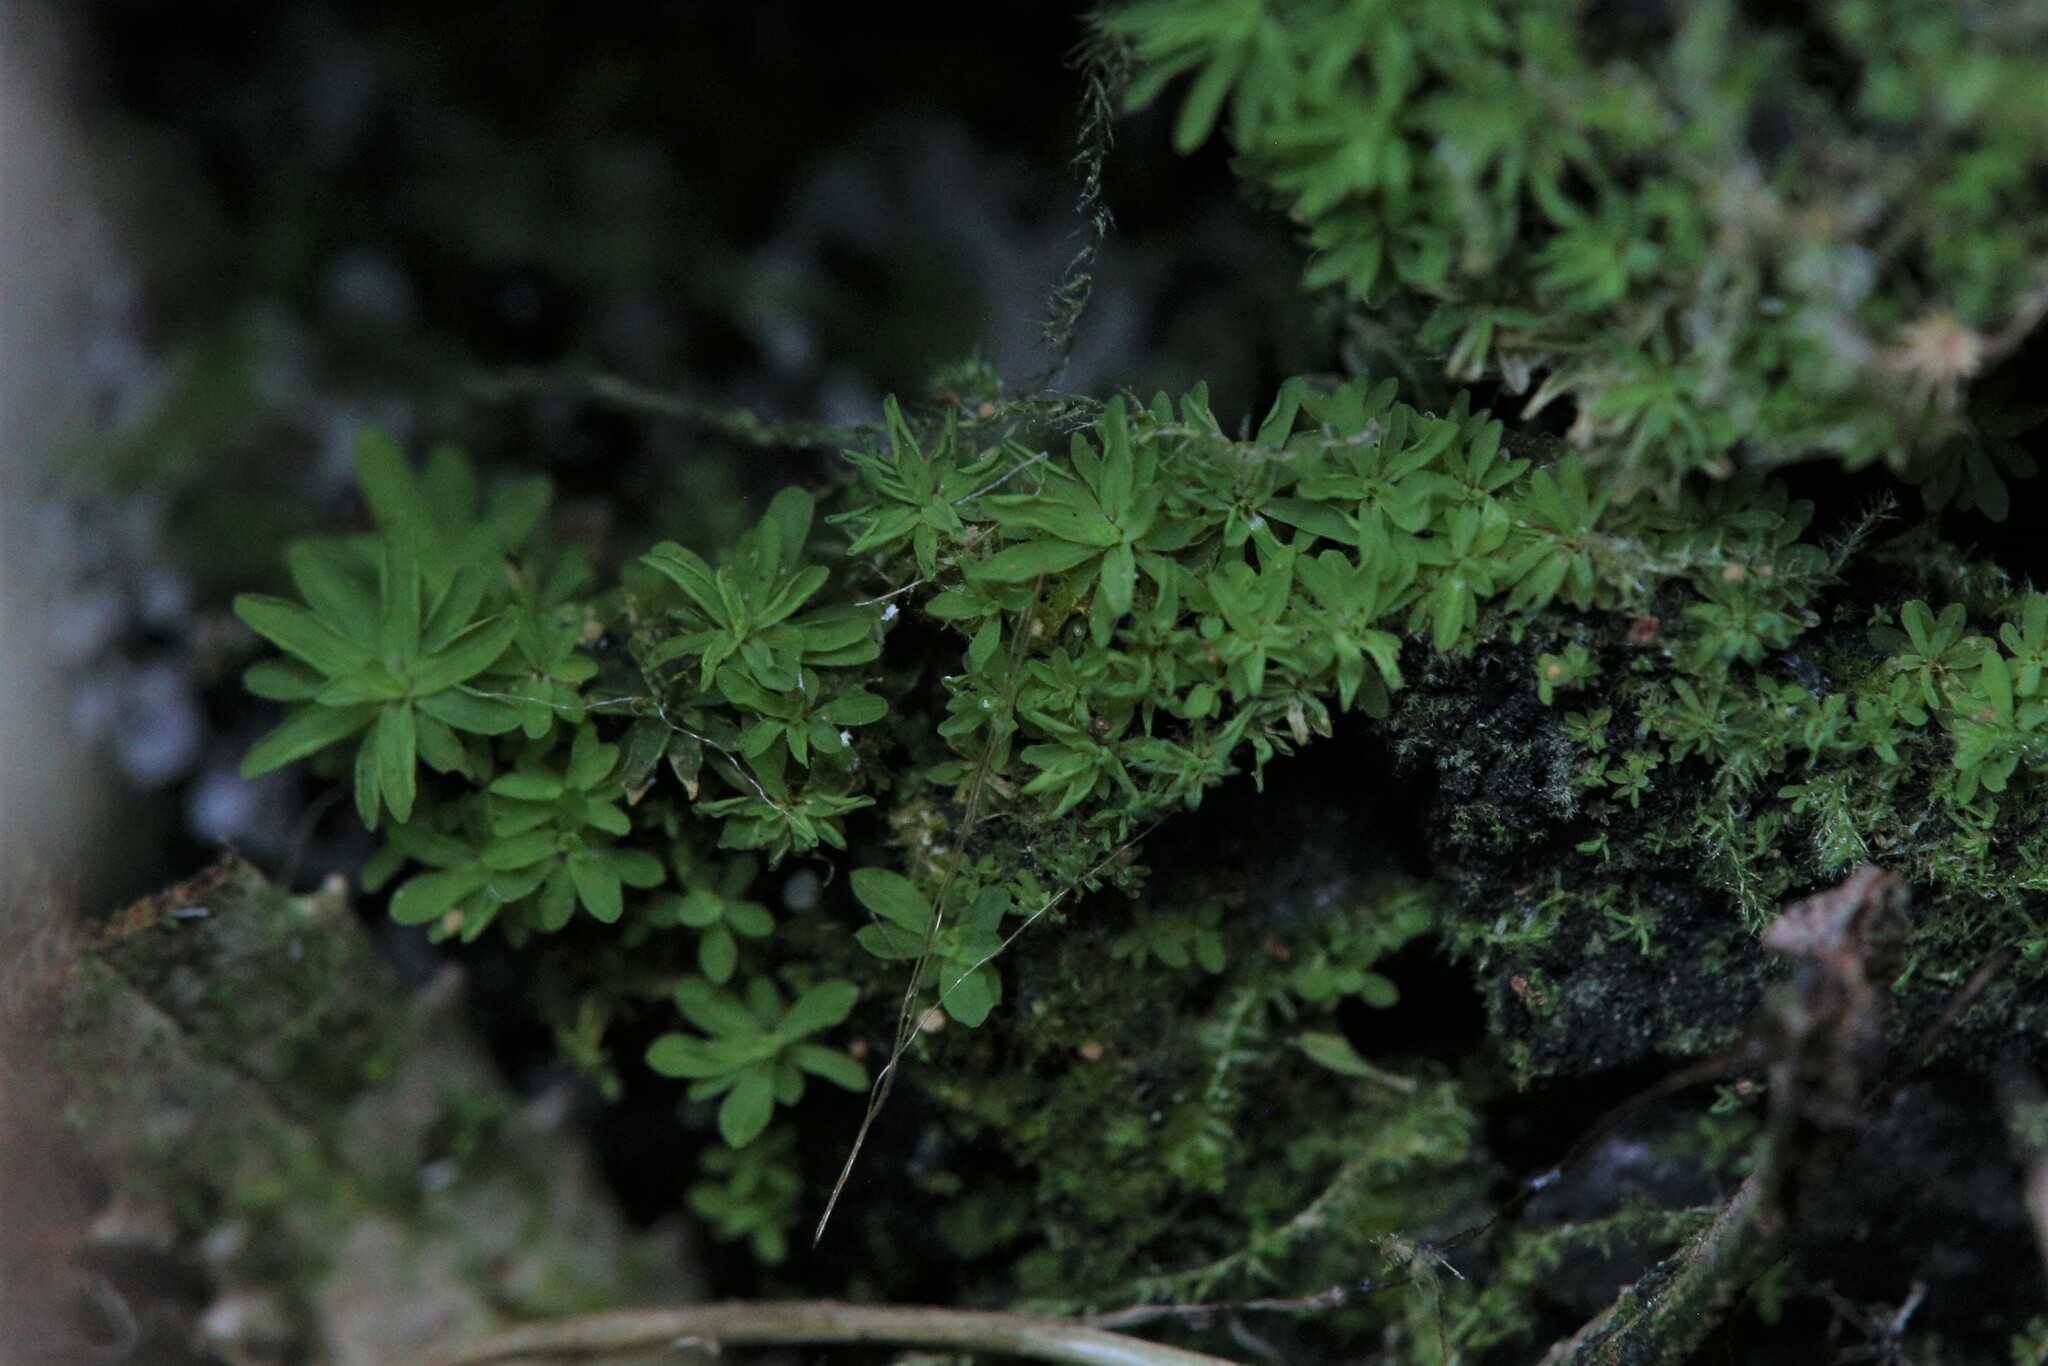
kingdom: Plantae
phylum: Bryophyta
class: Bryopsida
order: Pottiales
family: Pottiaceae
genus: Calymperastrum
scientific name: Calymperastrum latifolium
